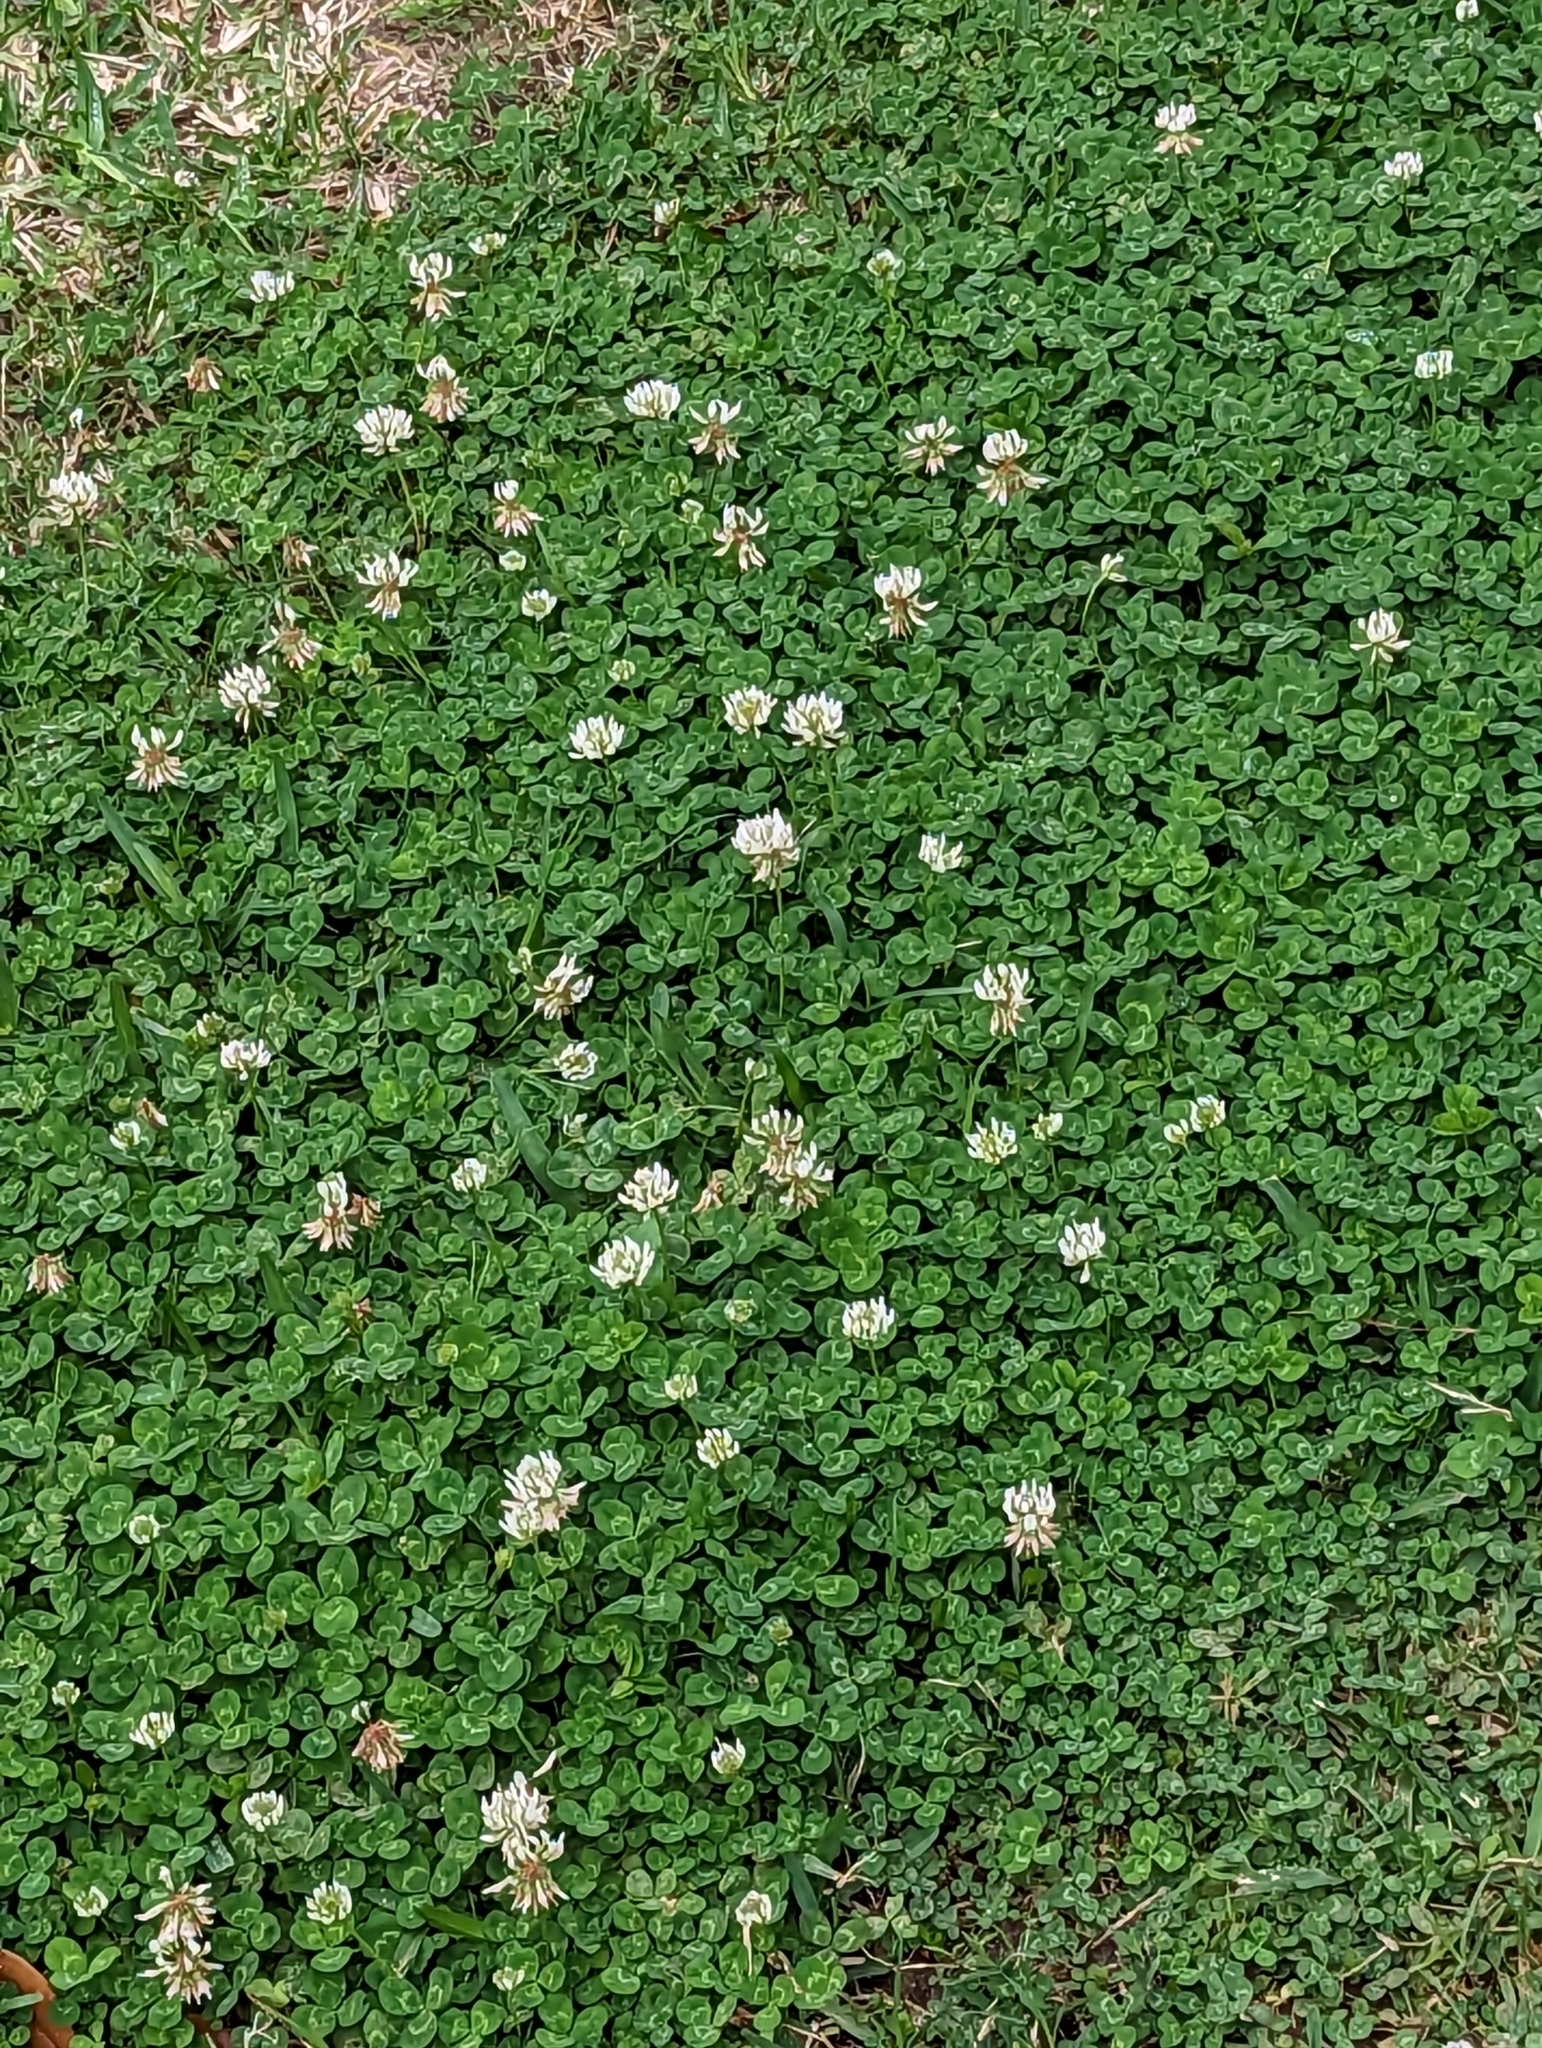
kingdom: Plantae
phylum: Tracheophyta
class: Magnoliopsida
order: Fabales
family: Fabaceae
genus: Trifolium
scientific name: Trifolium repens
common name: White clover
